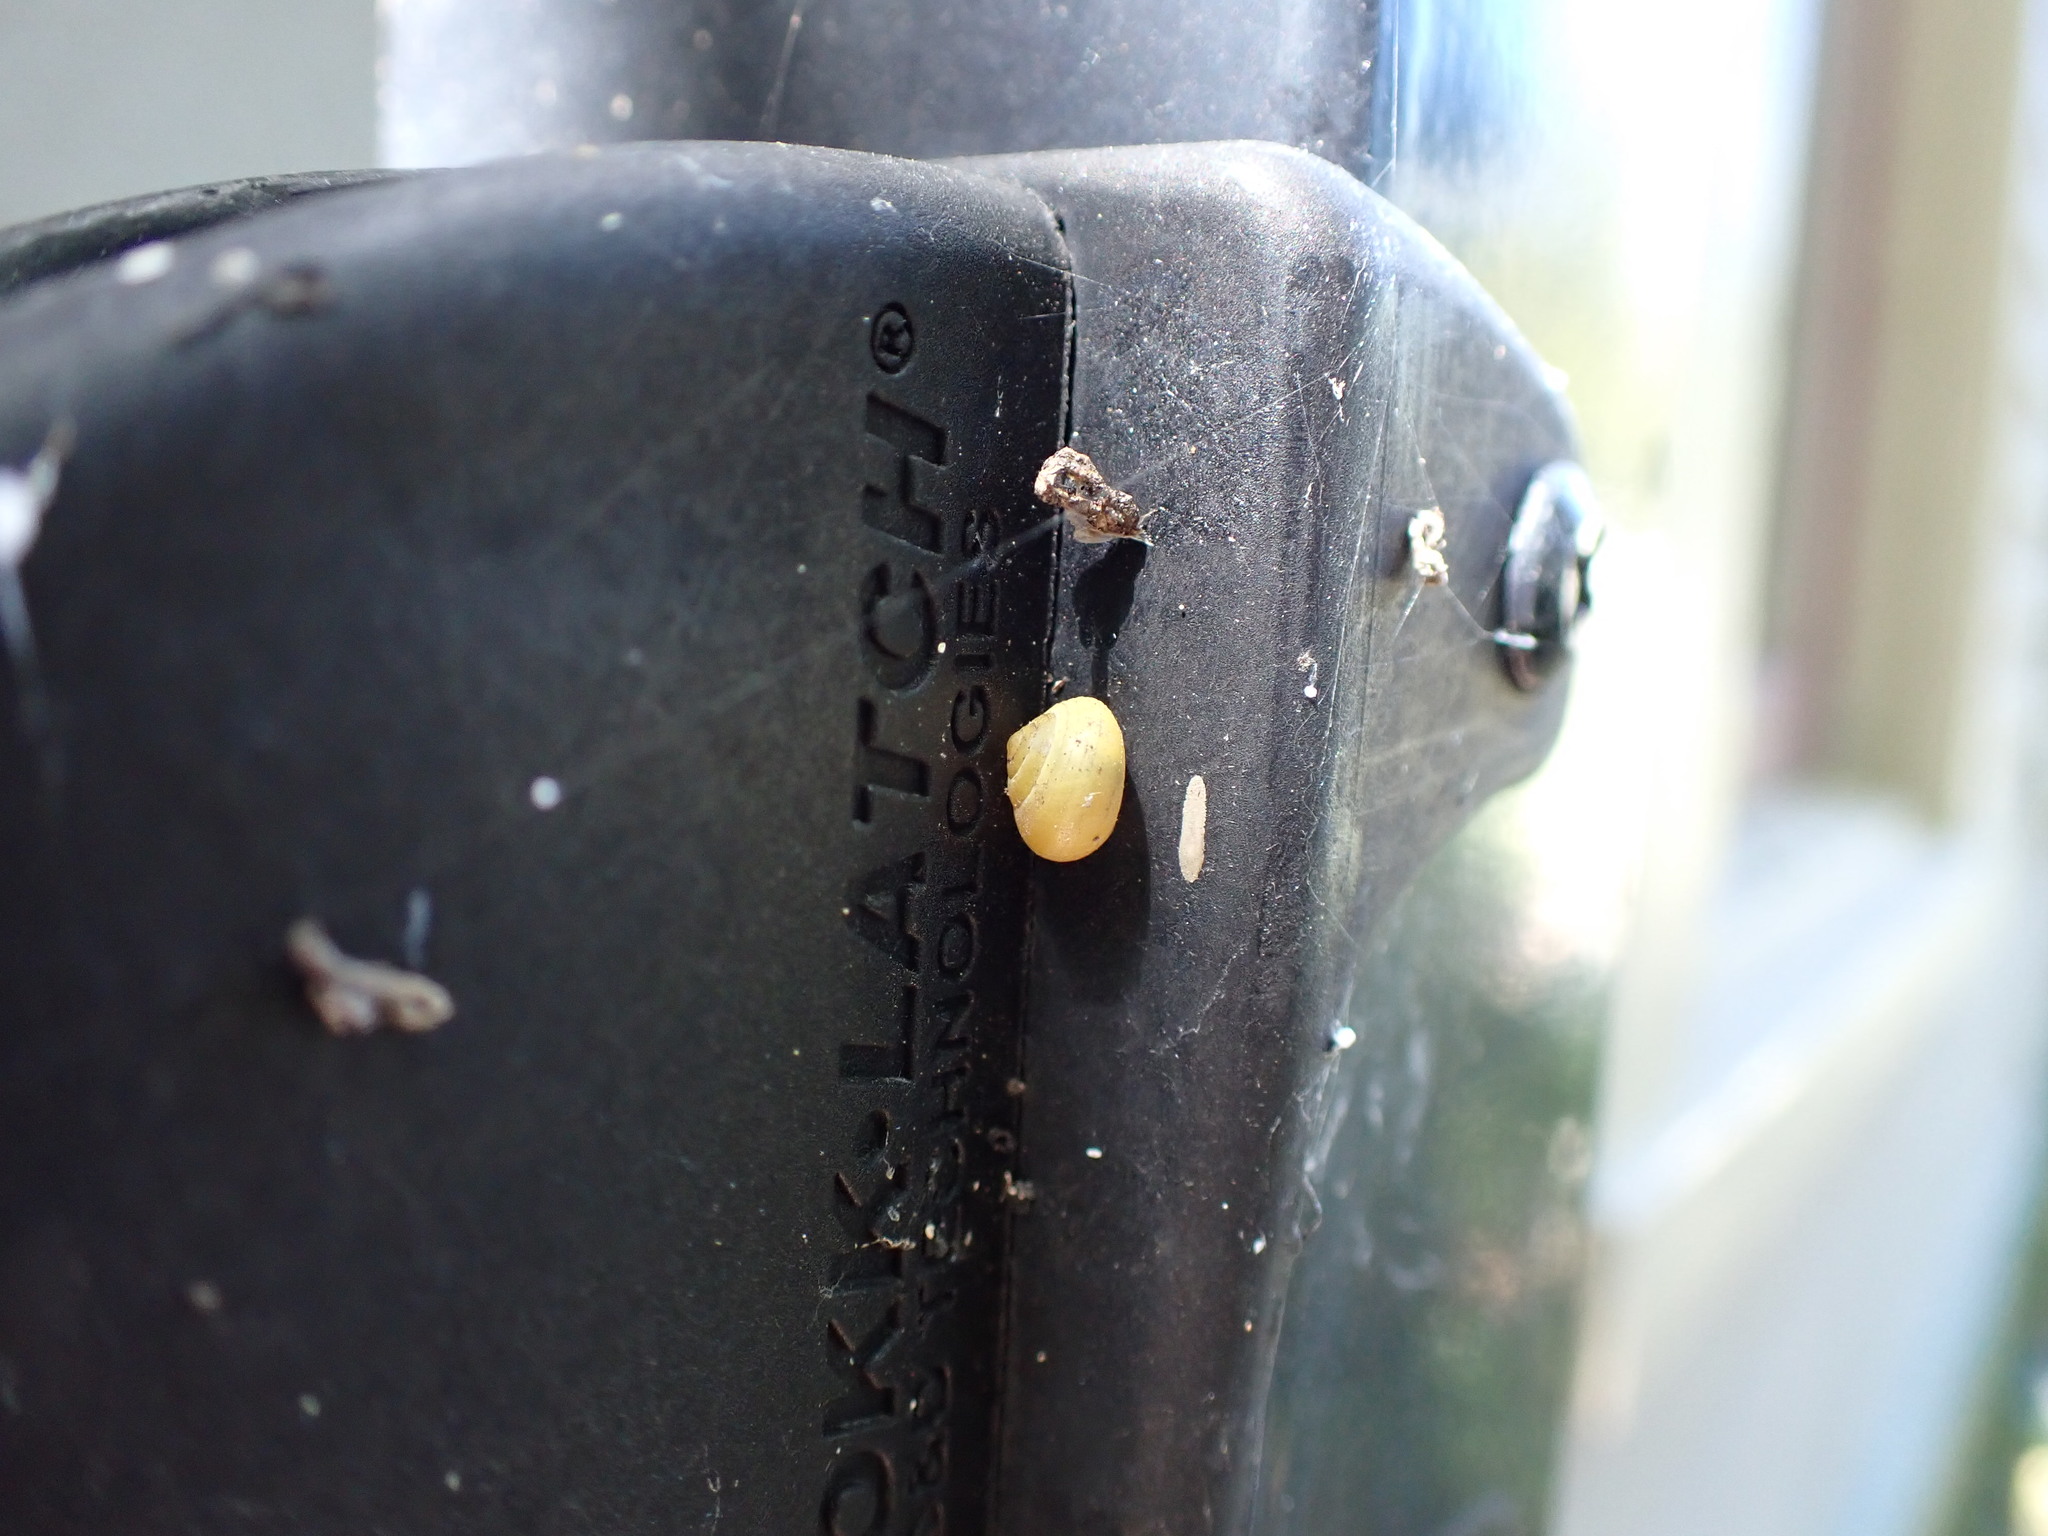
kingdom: Animalia
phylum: Mollusca
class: Gastropoda
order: Cycloneritida
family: Helicinidae
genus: Helicina
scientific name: Helicina orbiculata
